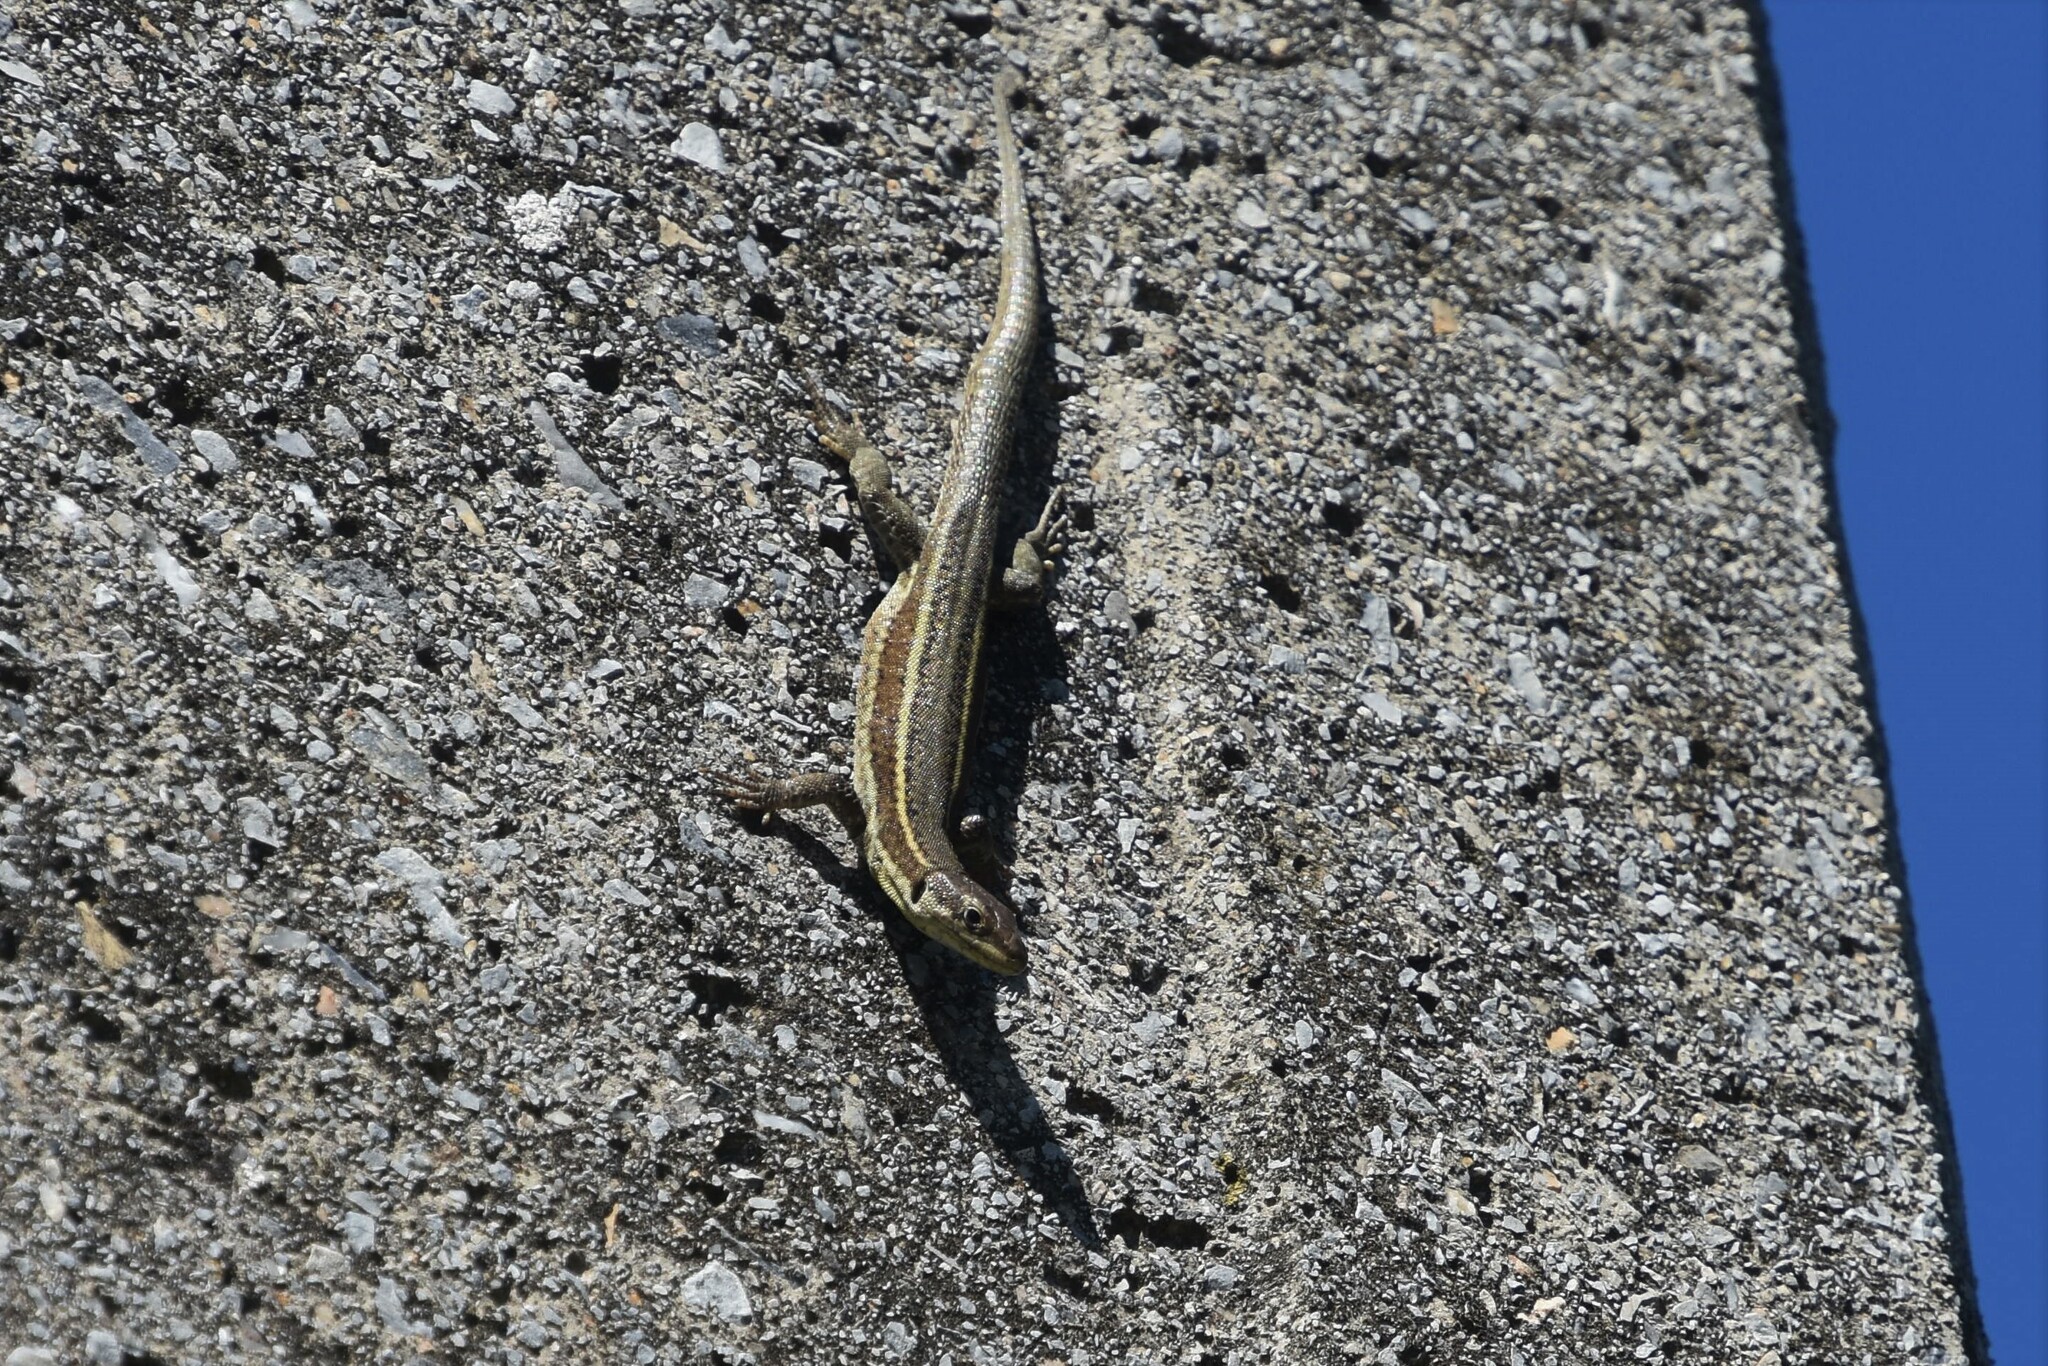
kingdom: Animalia
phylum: Chordata
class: Squamata
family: Lacertidae
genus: Podarcis
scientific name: Podarcis bocagei
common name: Bocage's wall lizard
